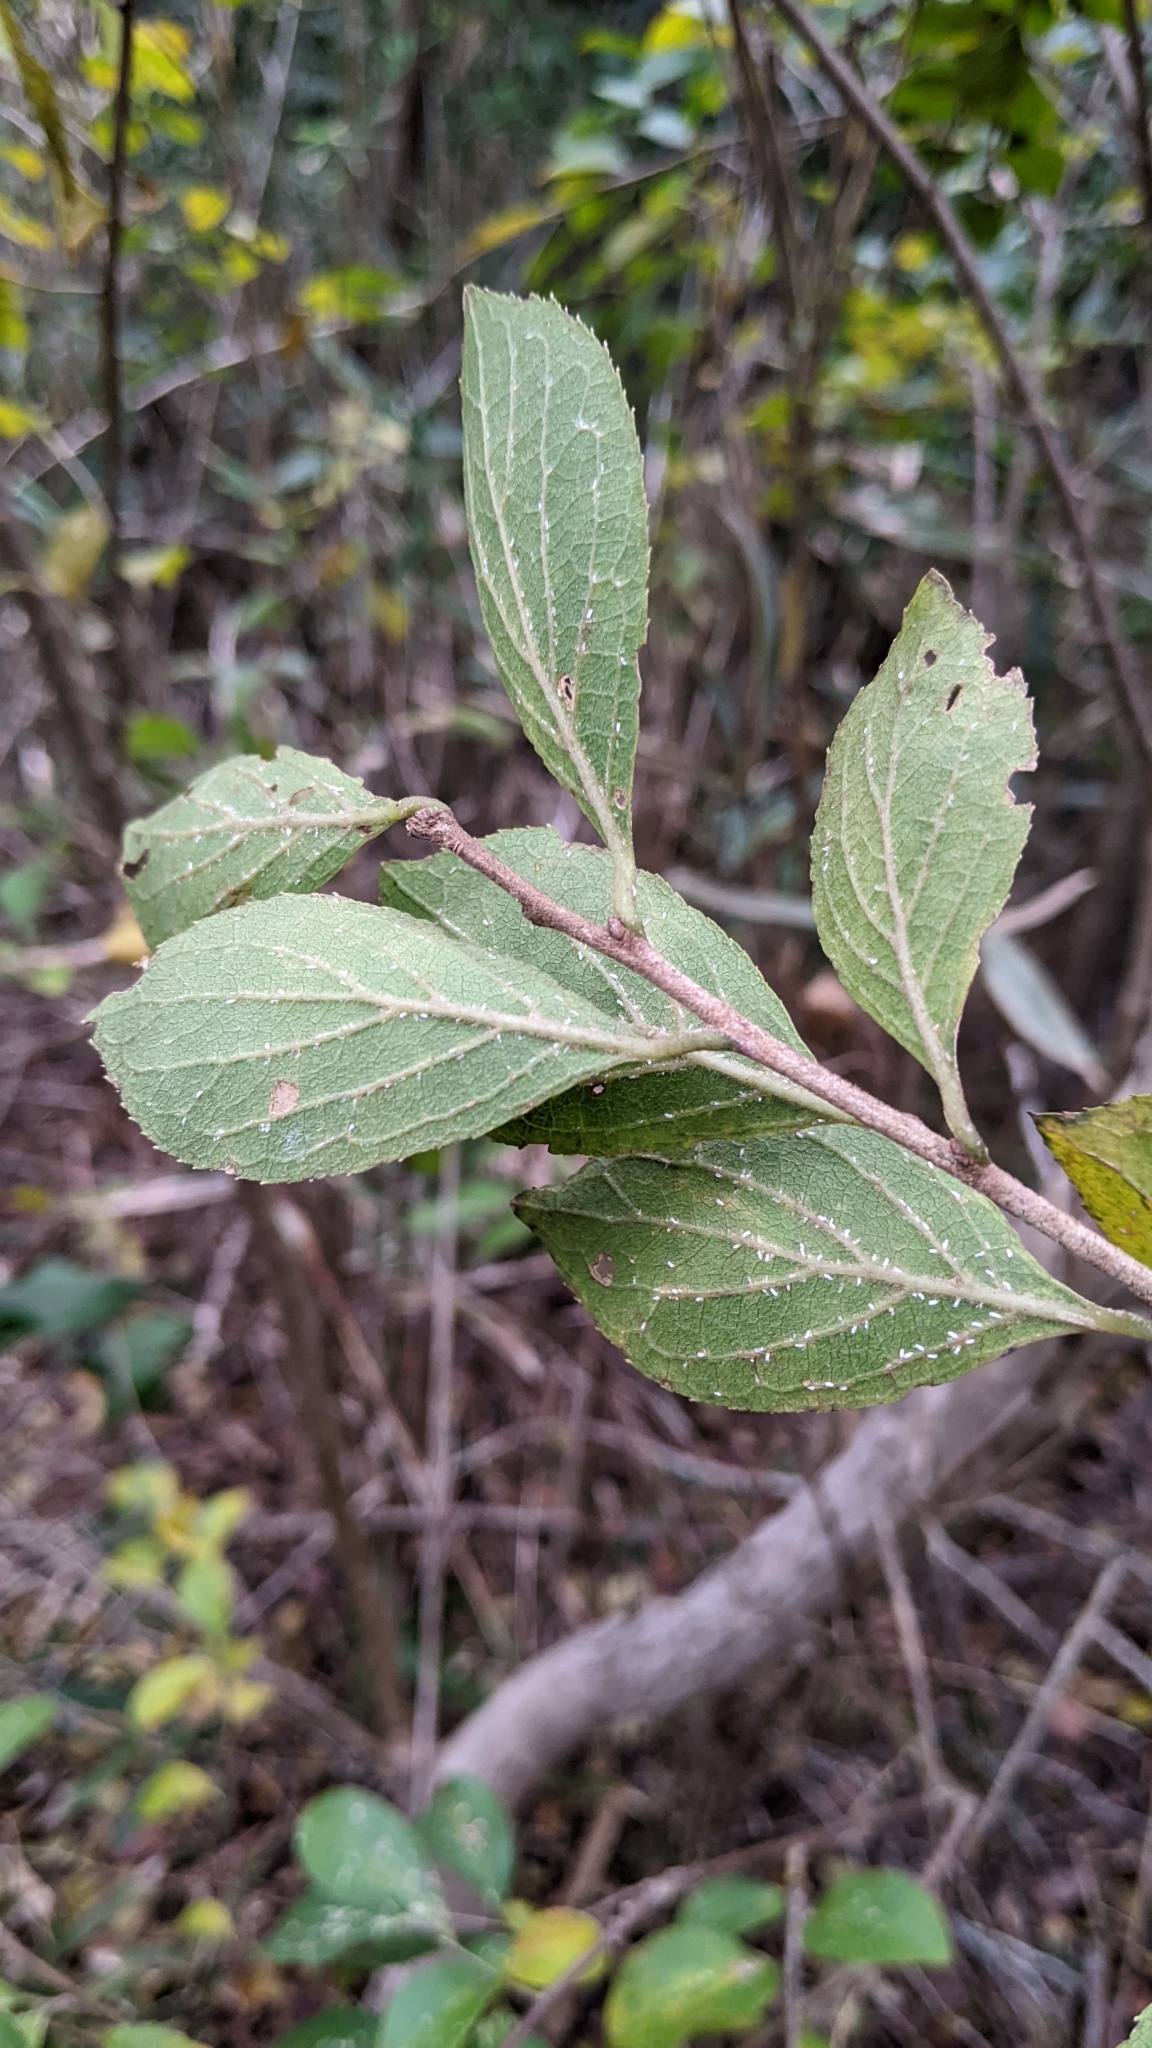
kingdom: Plantae
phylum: Tracheophyta
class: Magnoliopsida
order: Ericales
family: Symplocaceae
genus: Symplocos
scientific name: Symplocos paniculata
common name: Sapphire-berry
